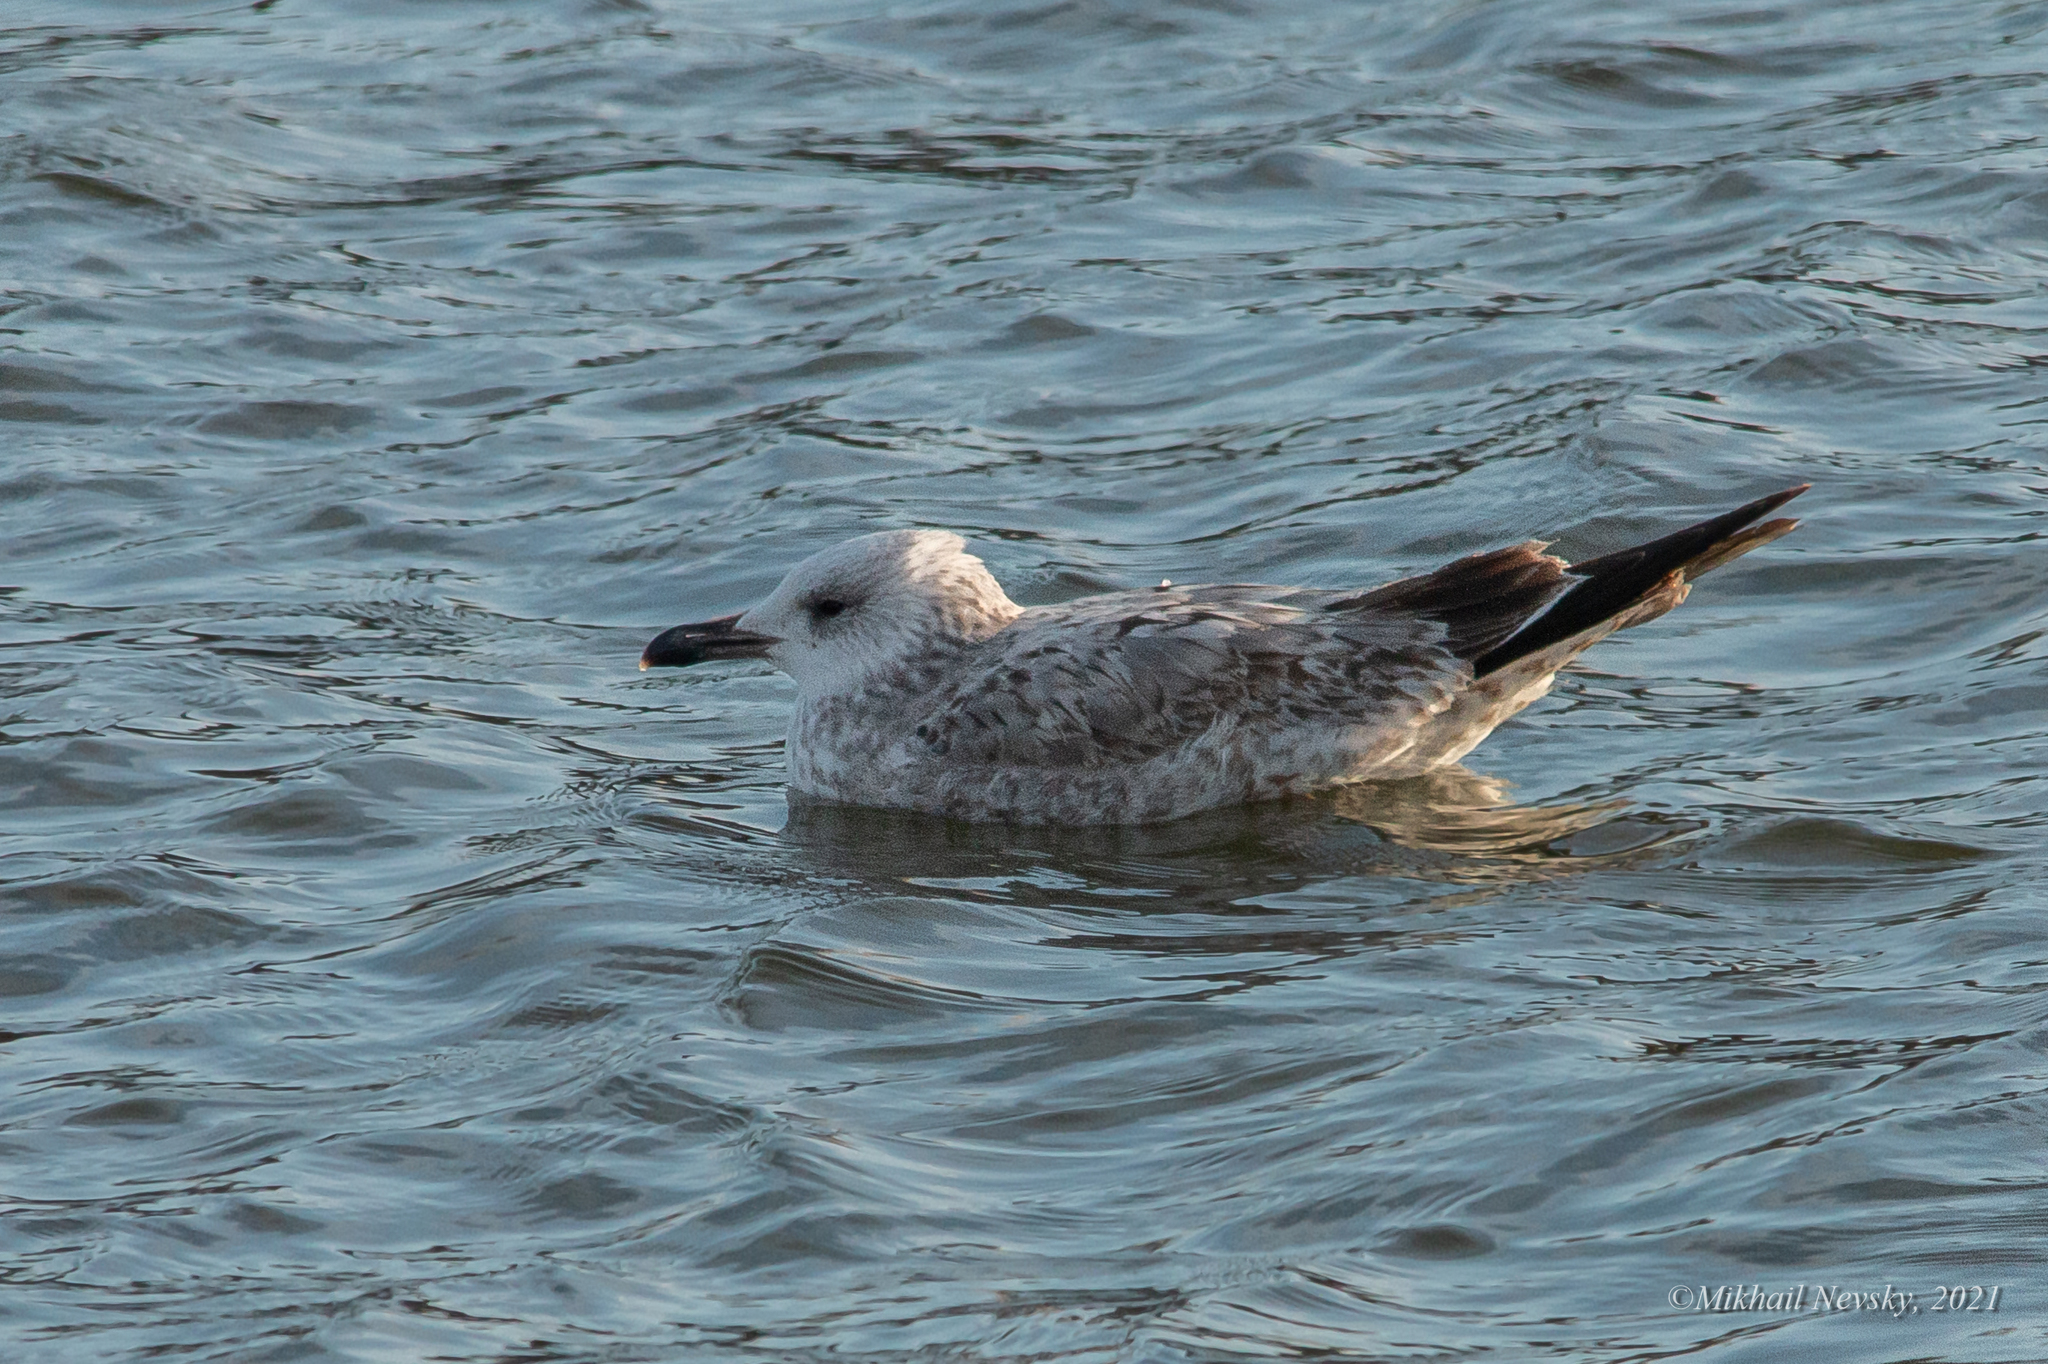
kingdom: Animalia
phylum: Chordata
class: Aves
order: Charadriiformes
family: Laridae
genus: Larus
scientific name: Larus cachinnans
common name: Caspian gull
